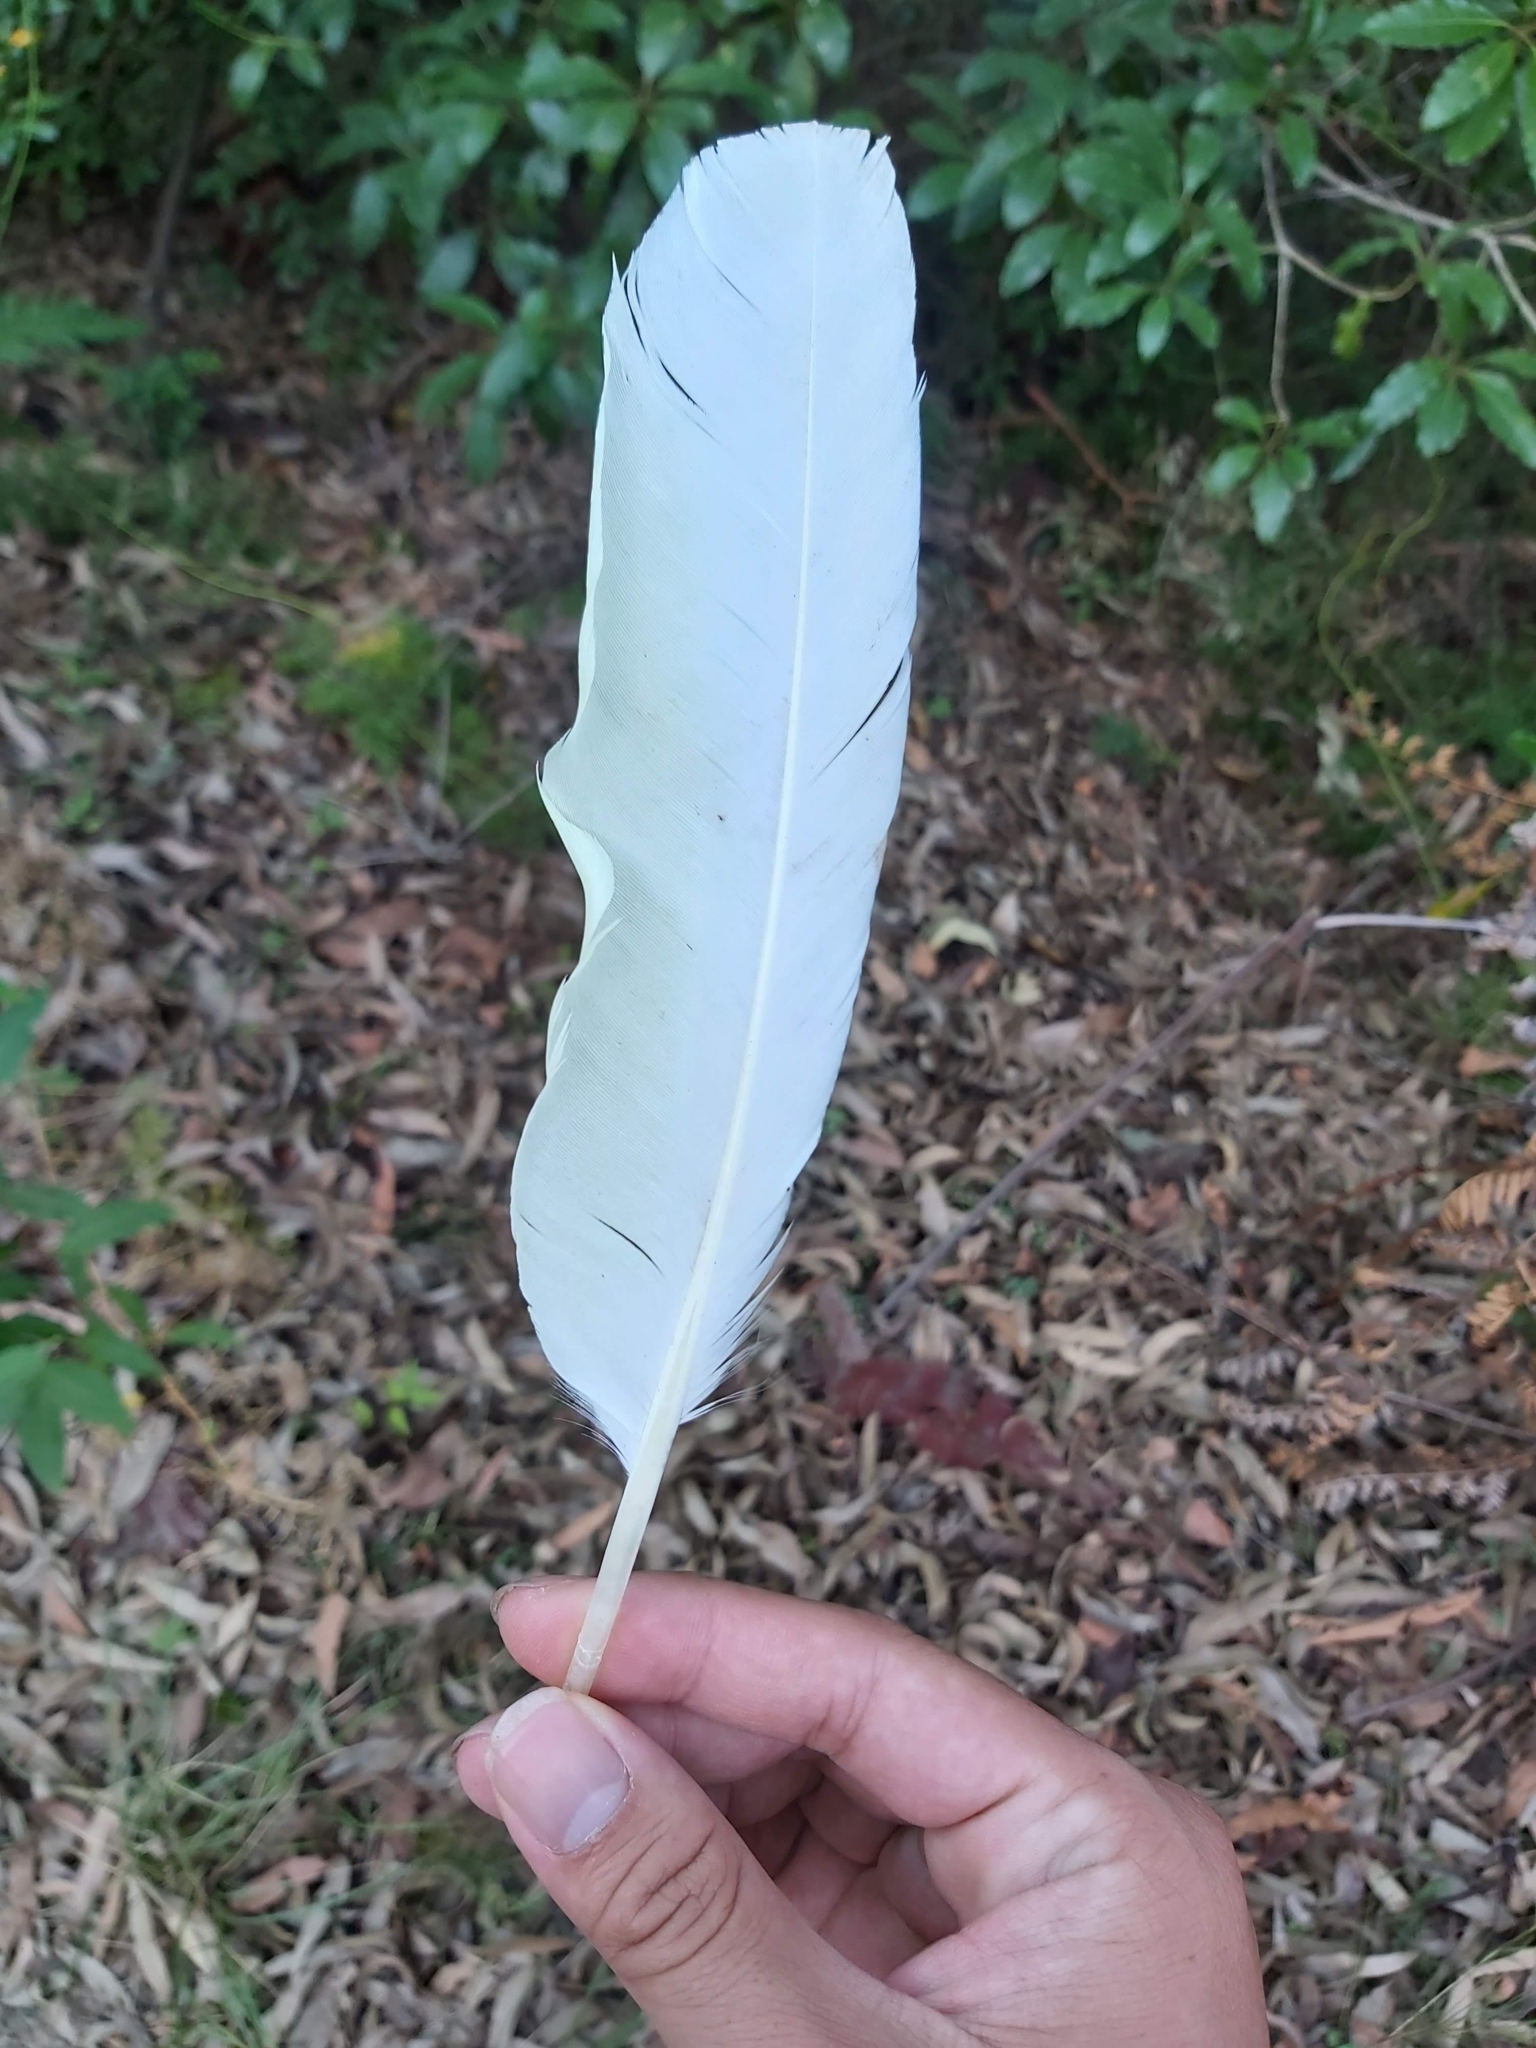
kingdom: Animalia
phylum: Chordata
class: Aves
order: Psittaciformes
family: Psittacidae
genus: Cacatua
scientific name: Cacatua galerita
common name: Sulphur-crested cockatoo
